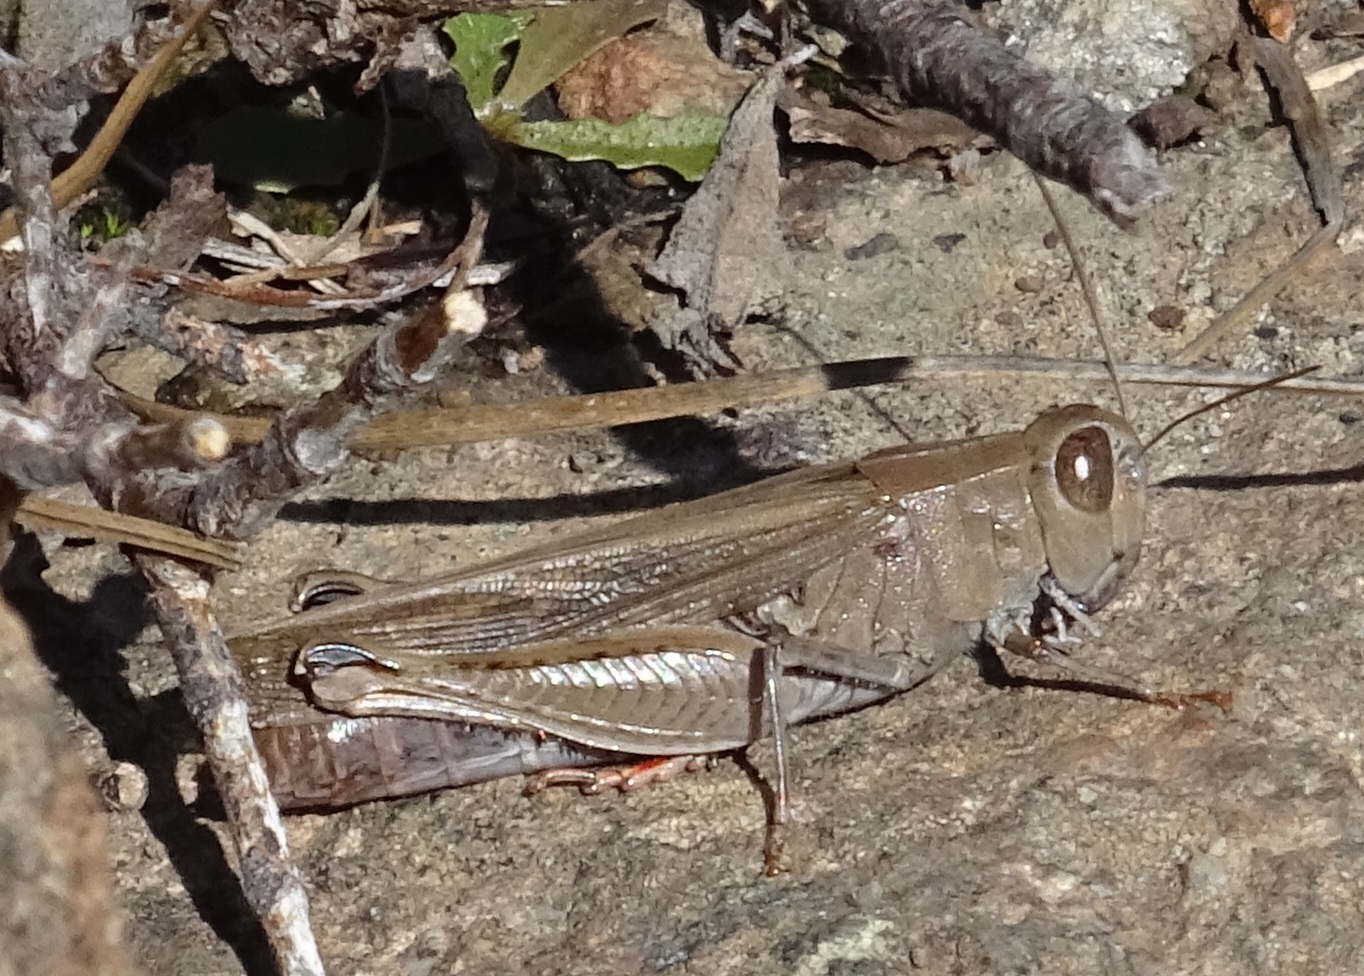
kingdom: Animalia
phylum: Arthropoda
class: Insecta
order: Orthoptera
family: Acrididae
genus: Calliptamus
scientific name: Calliptamus plebeius
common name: Canarian pincer grasshopper
